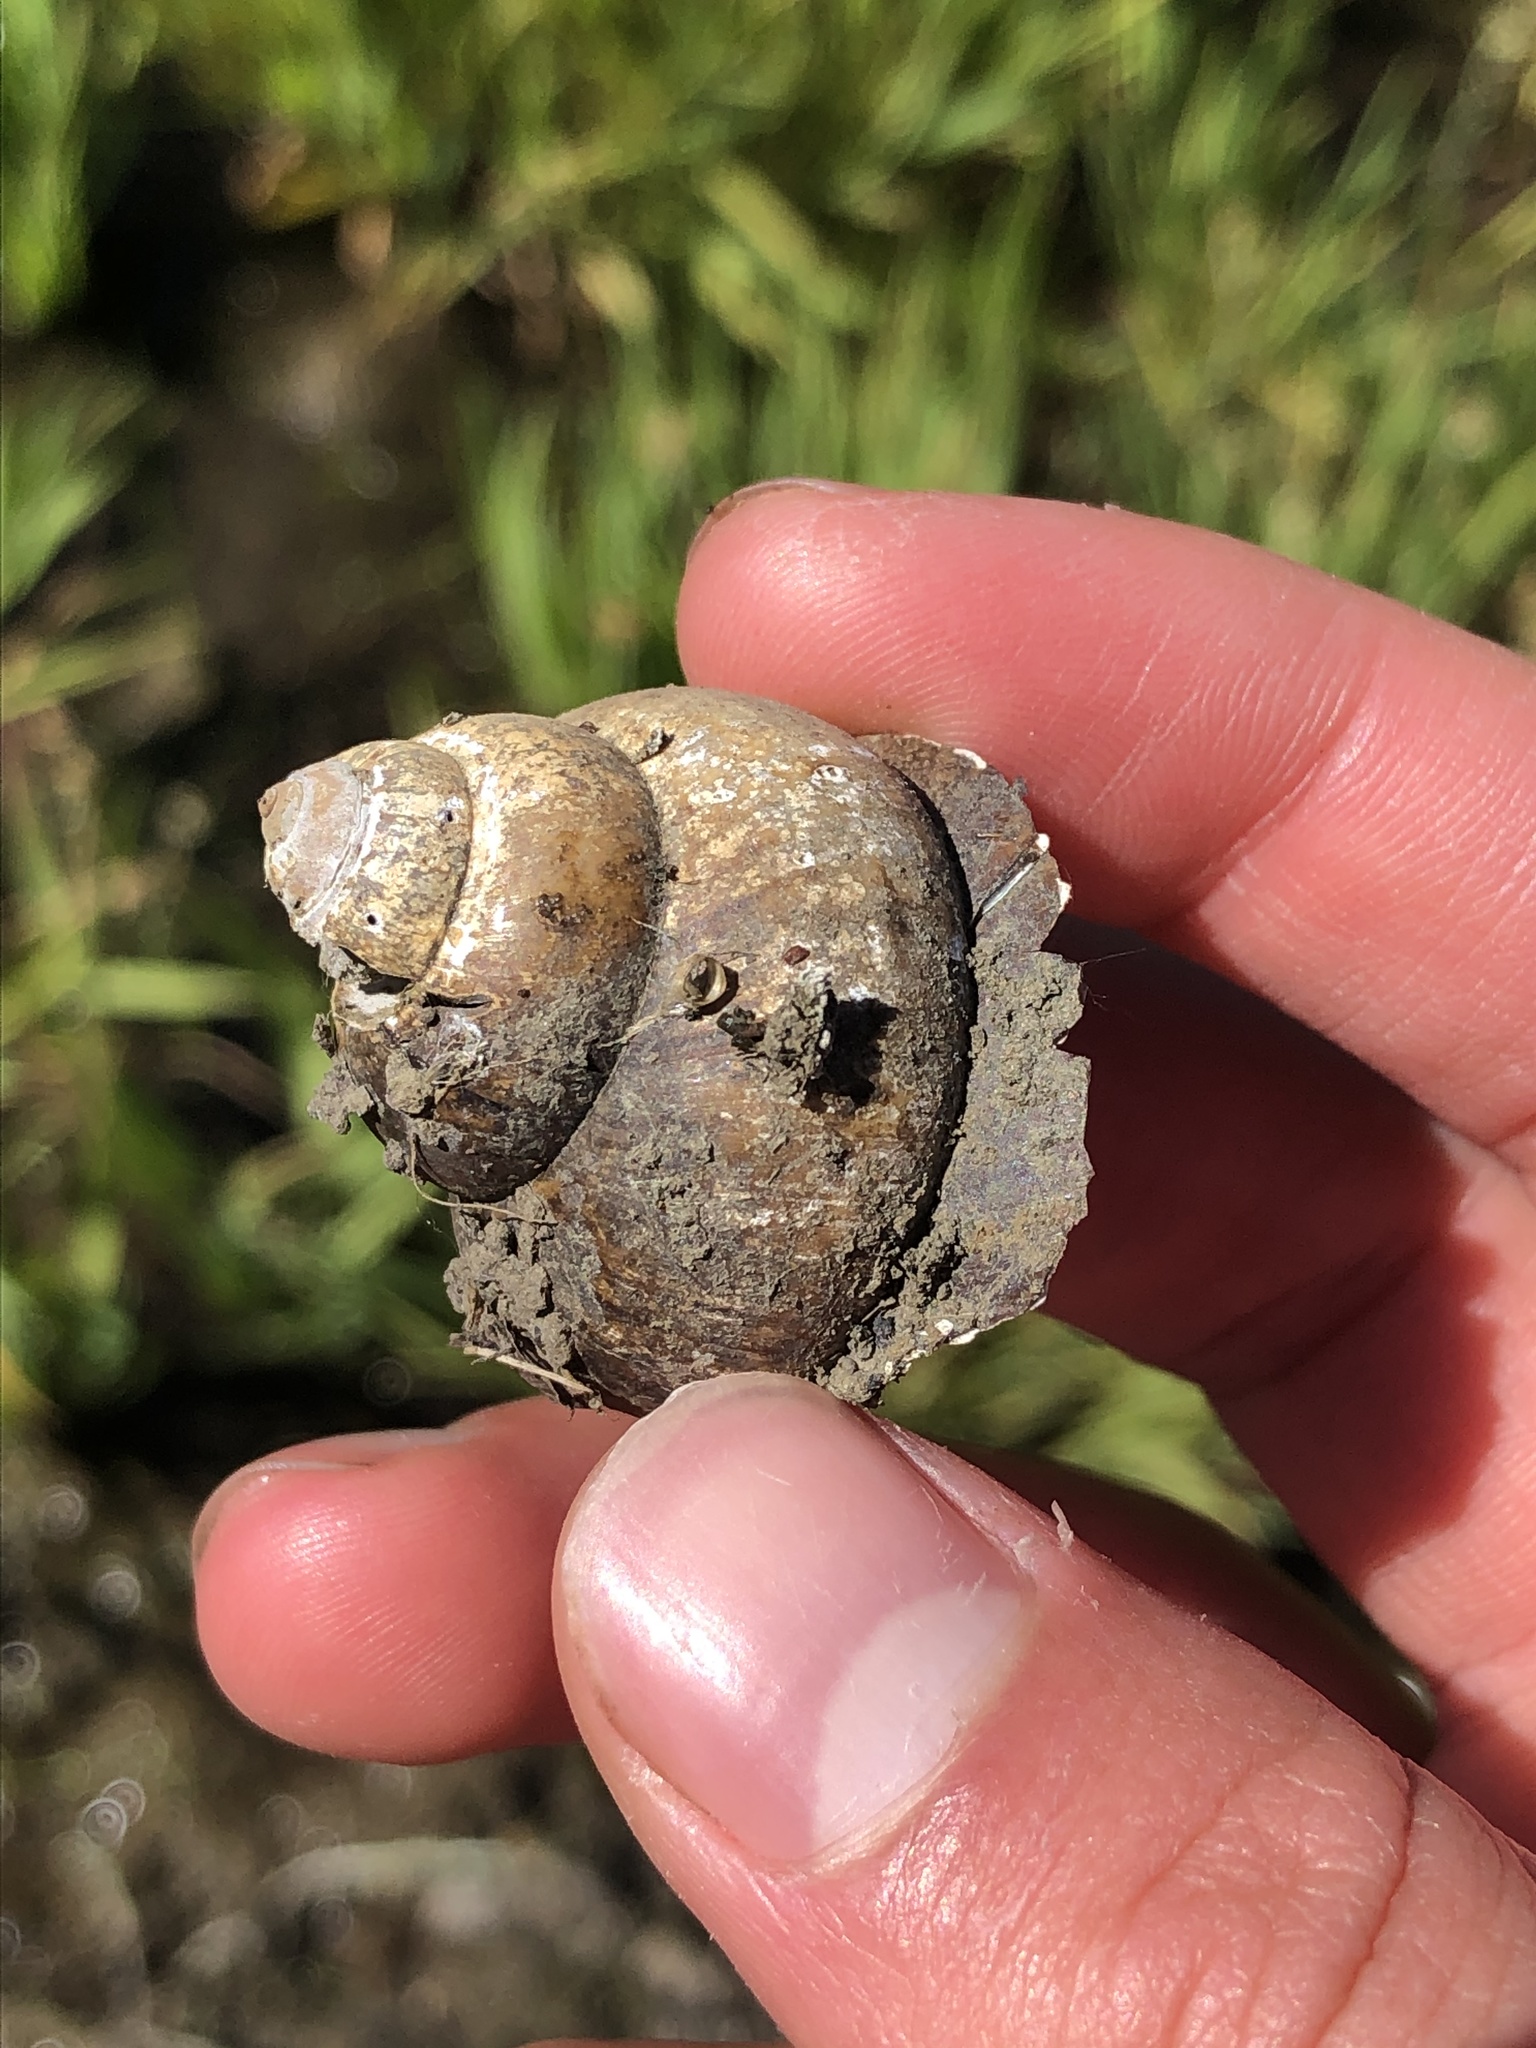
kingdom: Animalia
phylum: Mollusca
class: Gastropoda
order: Architaenioglossa
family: Viviparidae
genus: Cipangopaludina
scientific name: Cipangopaludina chinensis
